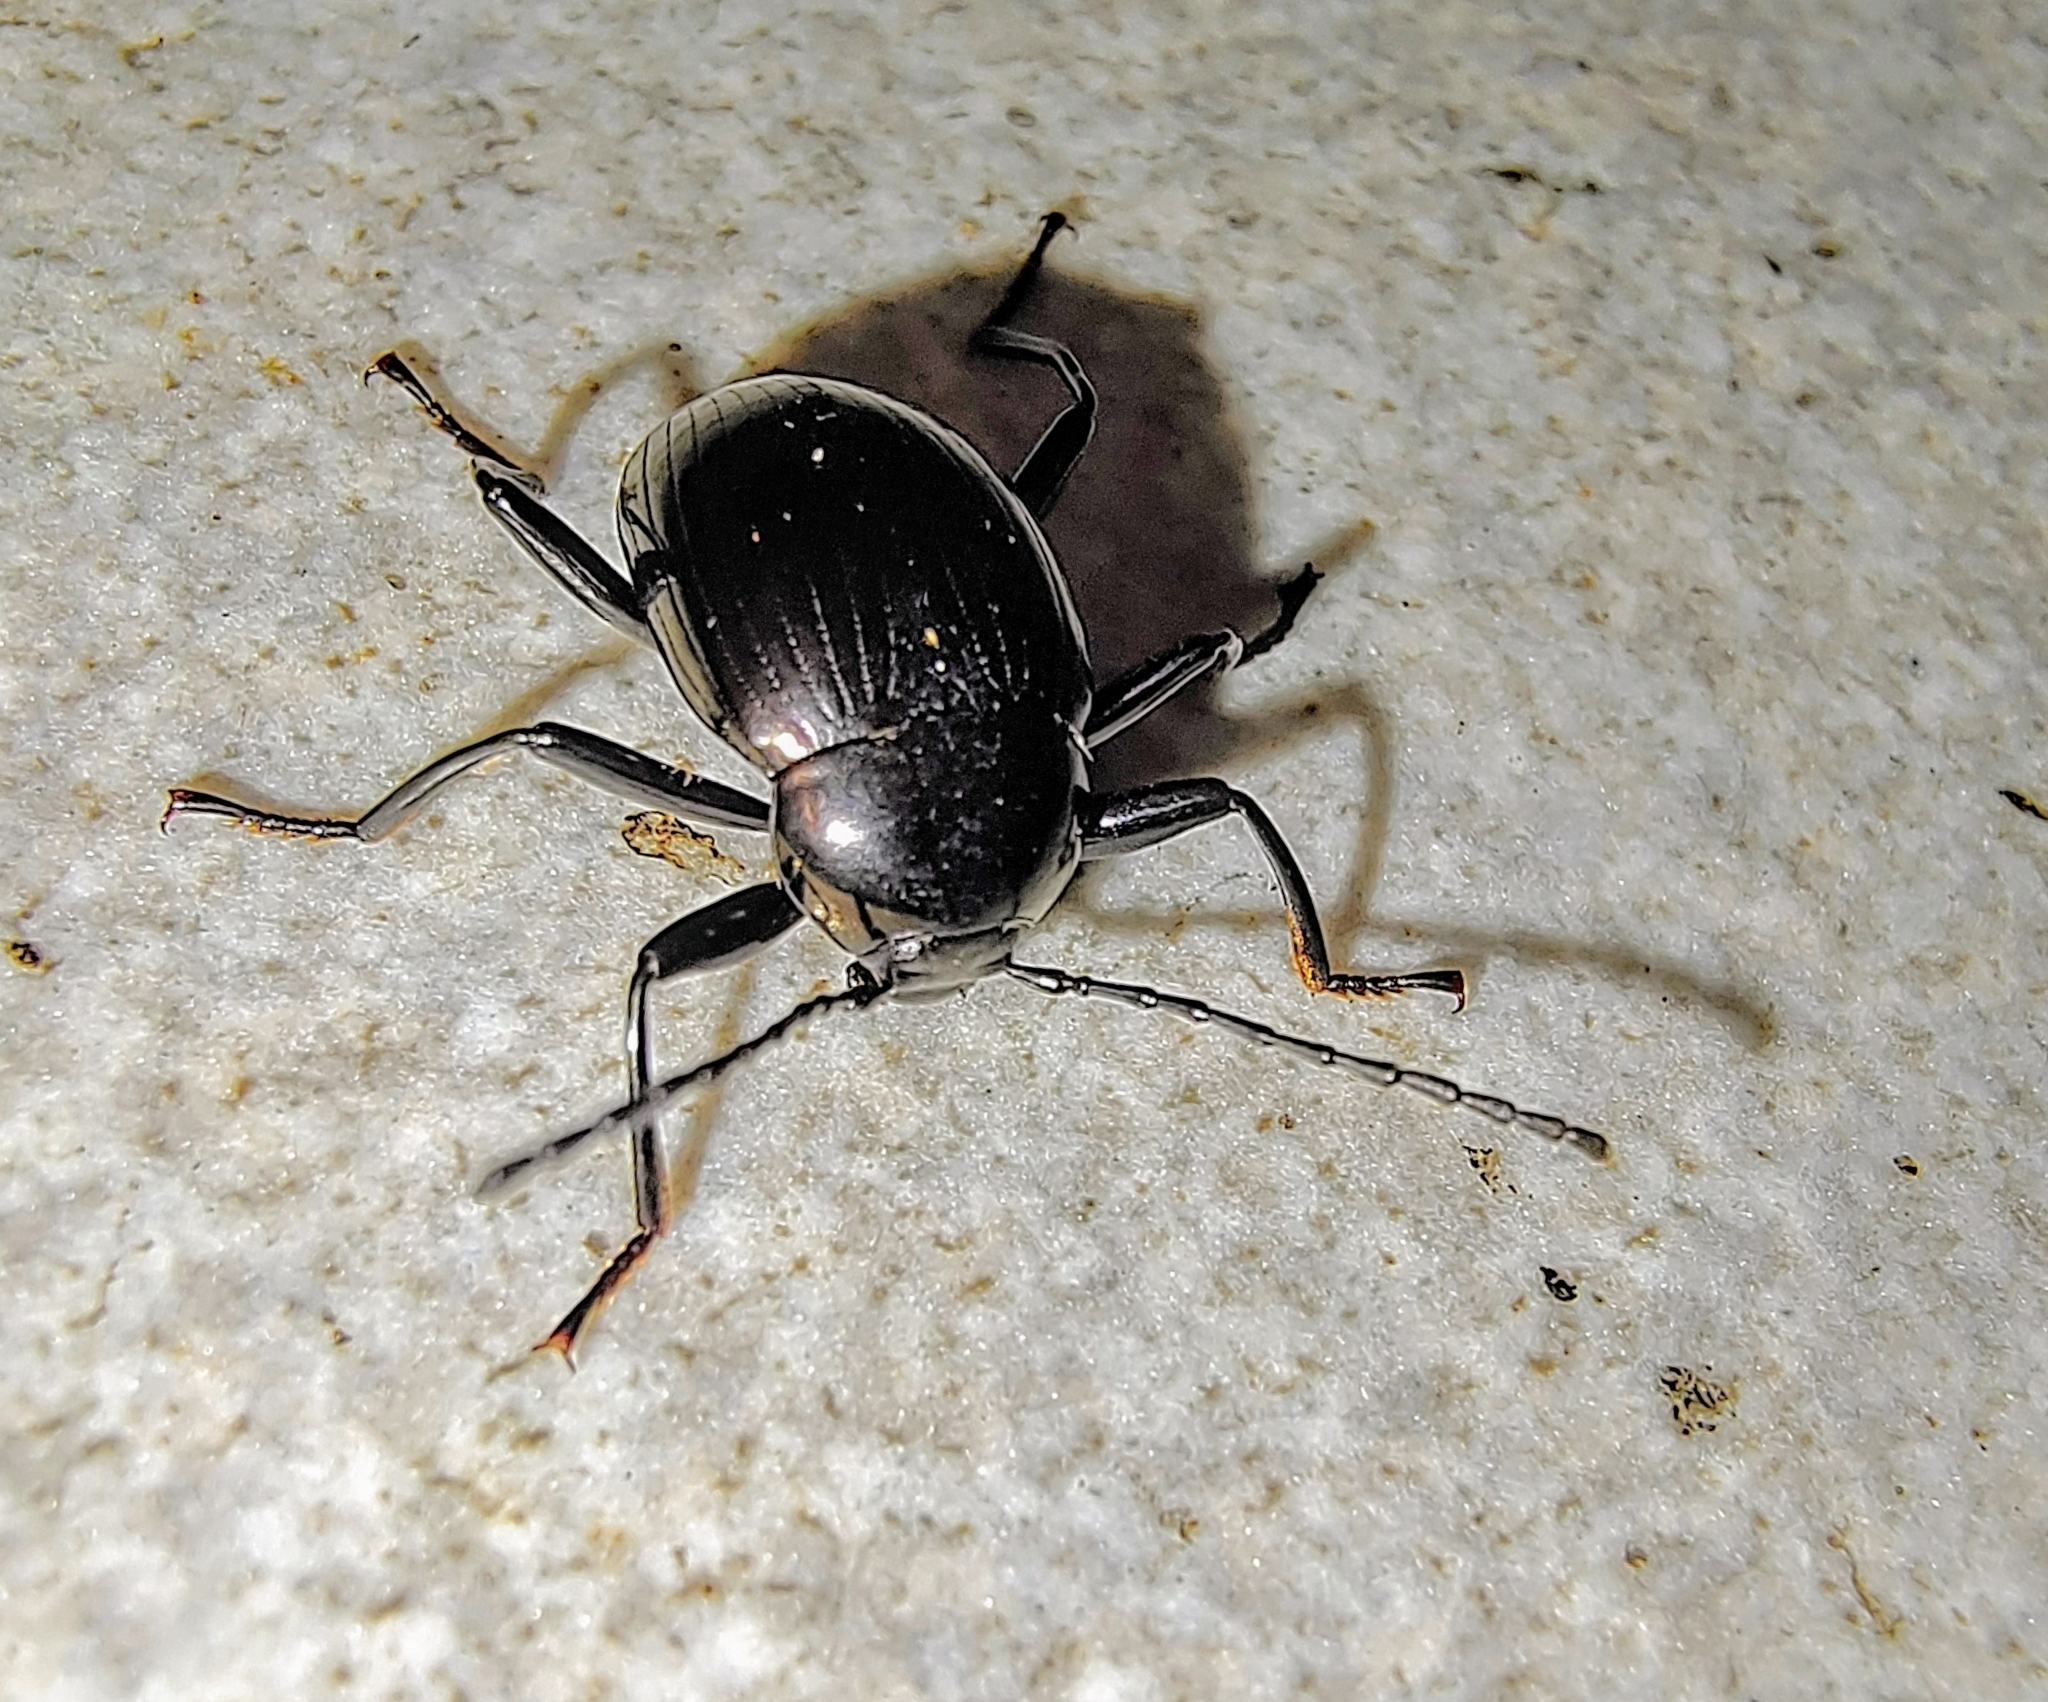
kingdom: Animalia
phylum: Arthropoda
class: Insecta
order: Coleoptera
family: Tenebrionidae
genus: Amarygmus
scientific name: Amarygmus
